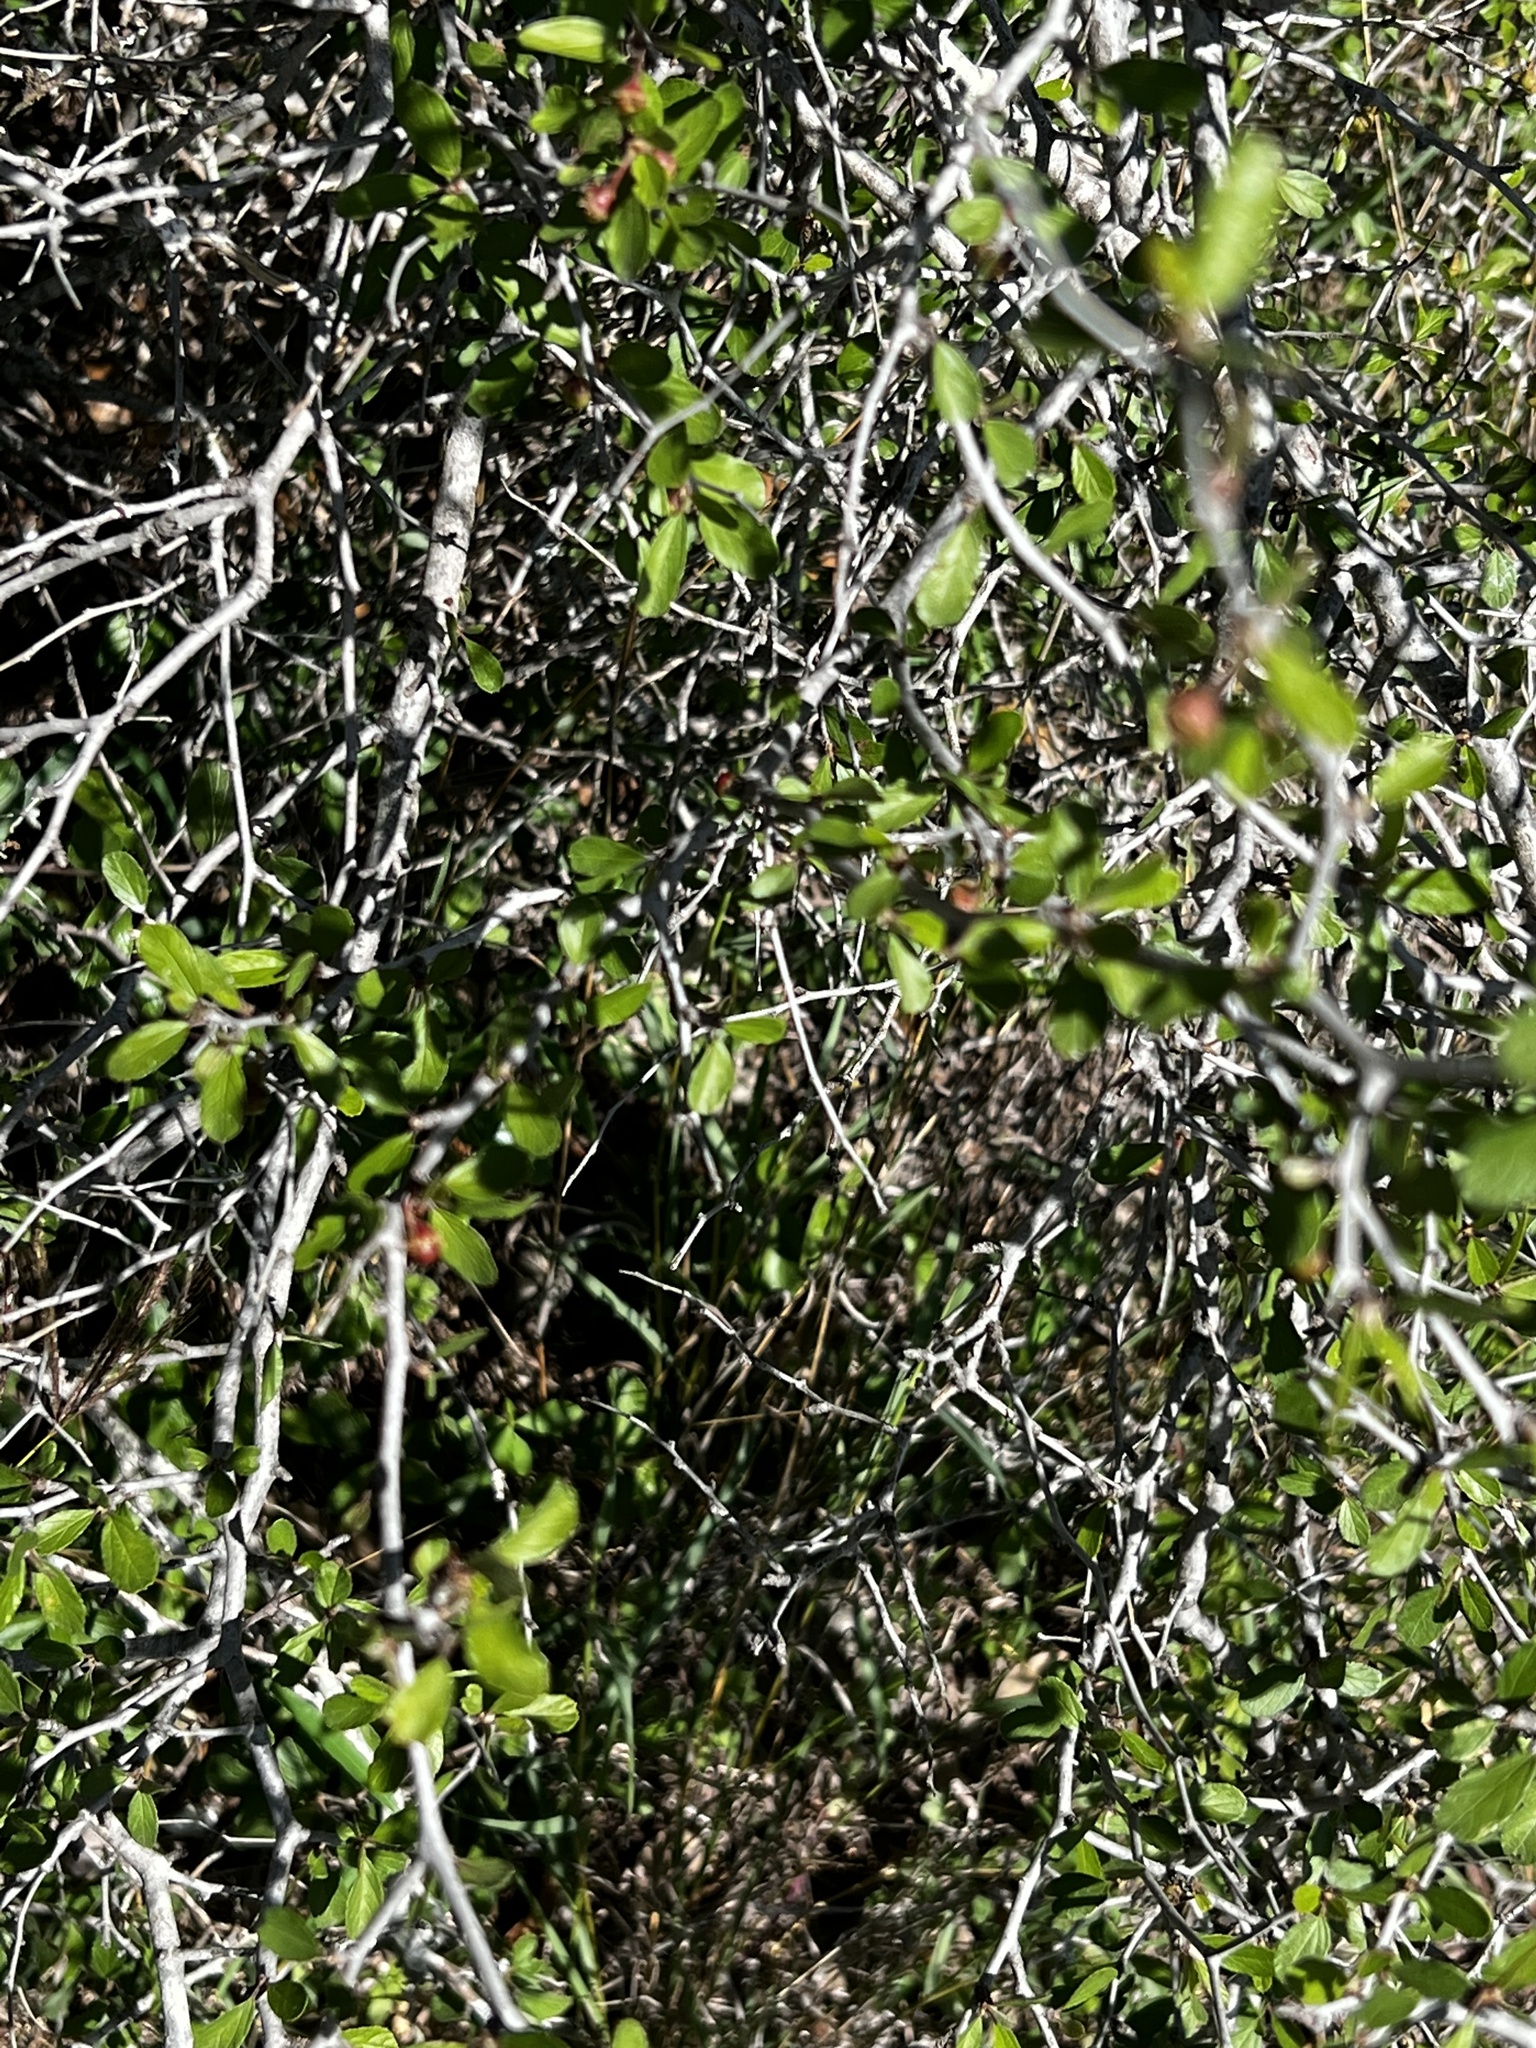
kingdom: Plantae
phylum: Tracheophyta
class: Magnoliopsida
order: Rosales
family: Rhamnaceae
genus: Colubrina
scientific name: Colubrina texensis
